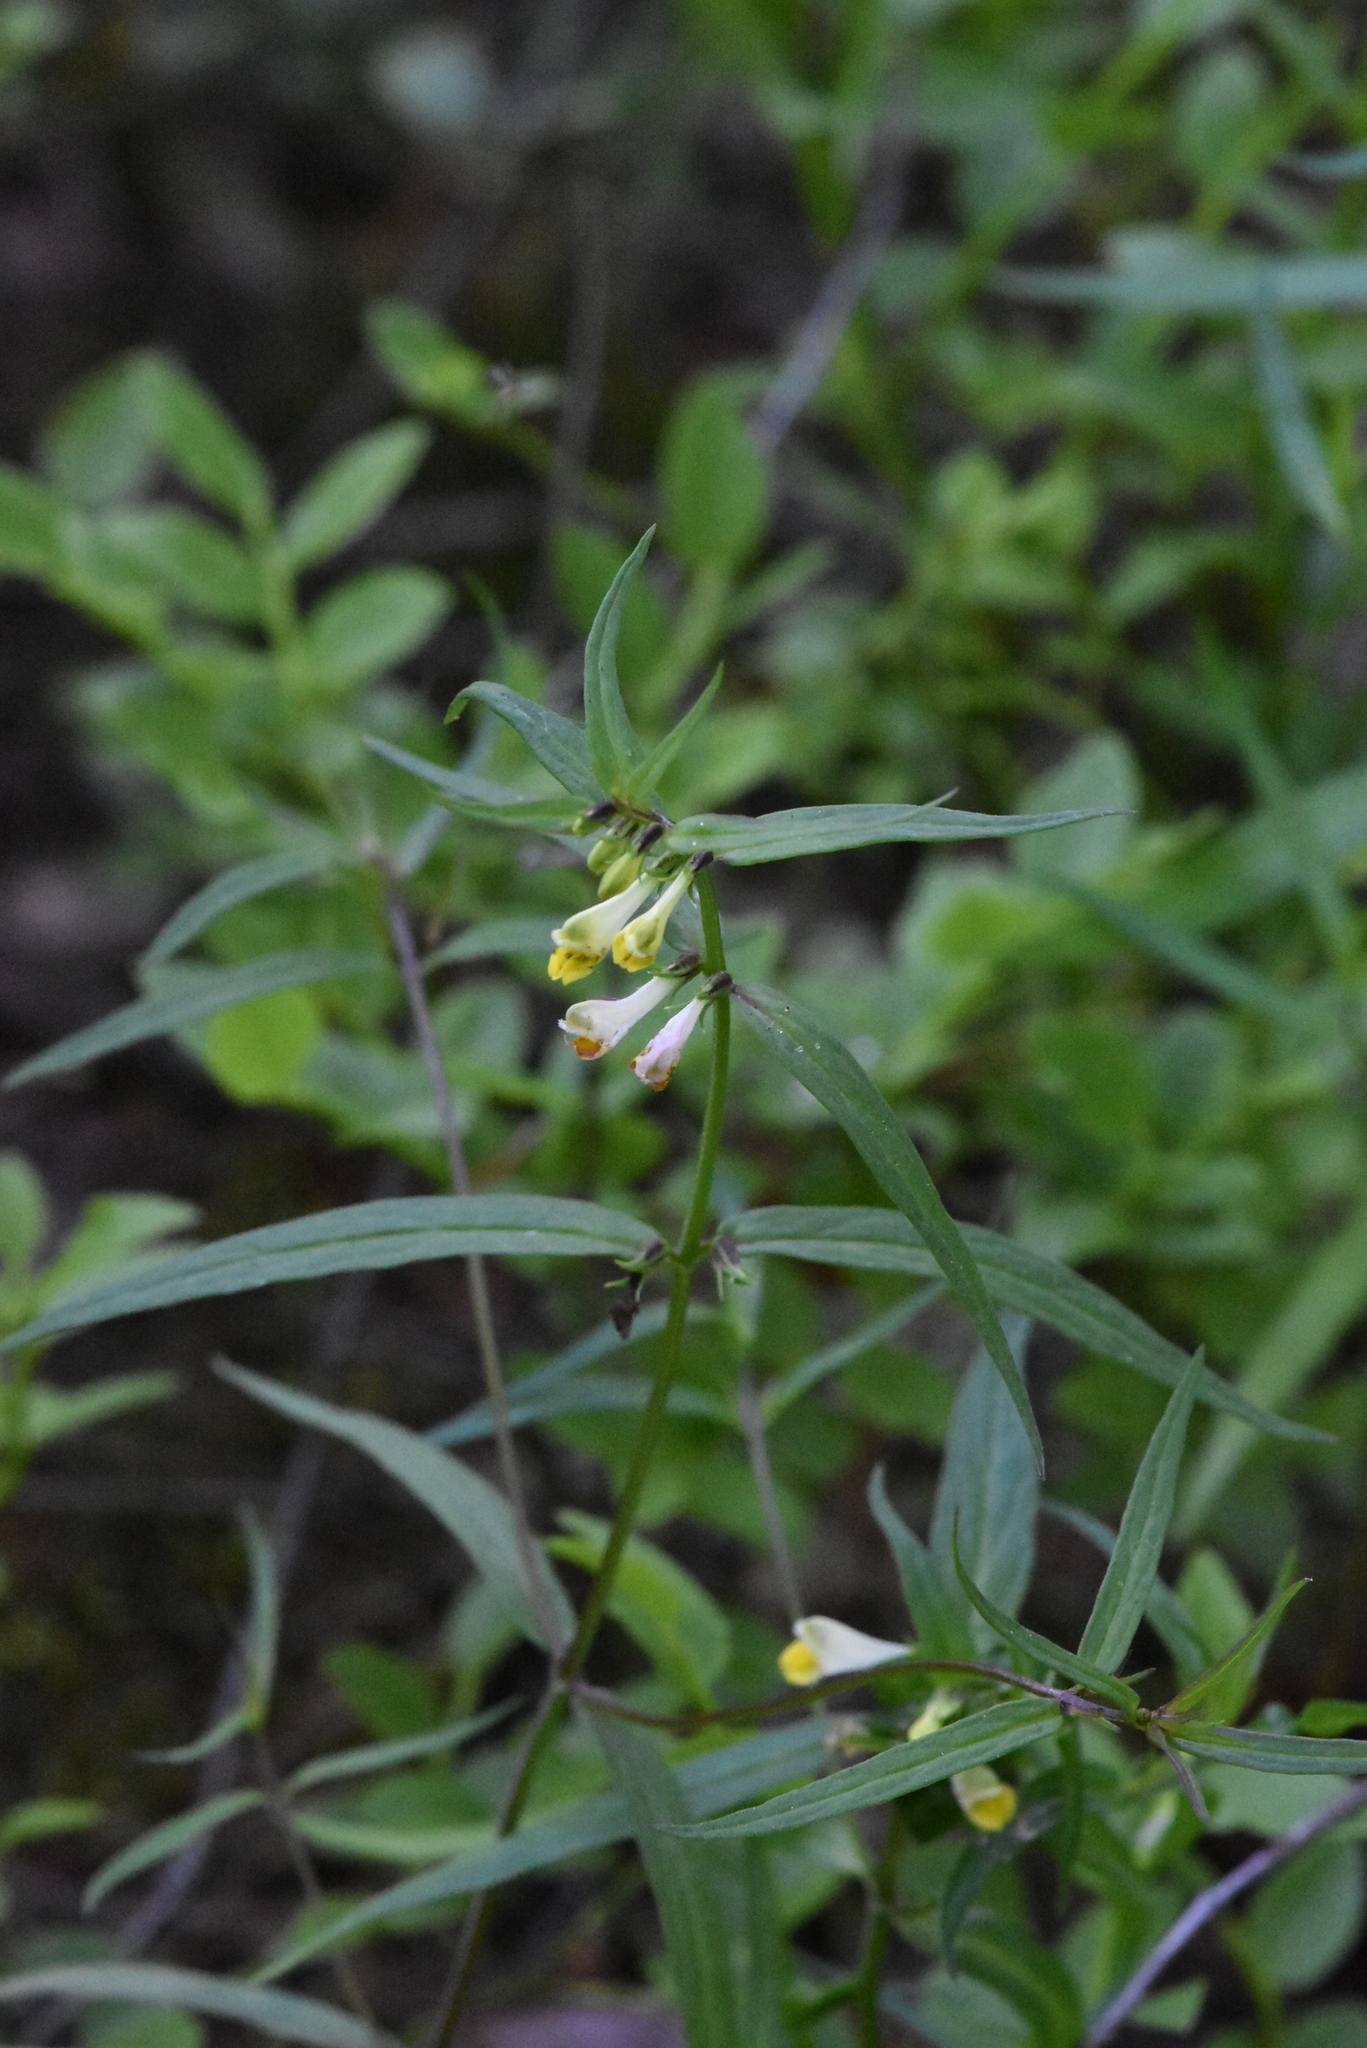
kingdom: Plantae
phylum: Tracheophyta
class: Magnoliopsida
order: Lamiales
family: Orobanchaceae
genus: Melampyrum
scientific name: Melampyrum pratense
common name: Common cow-wheat
